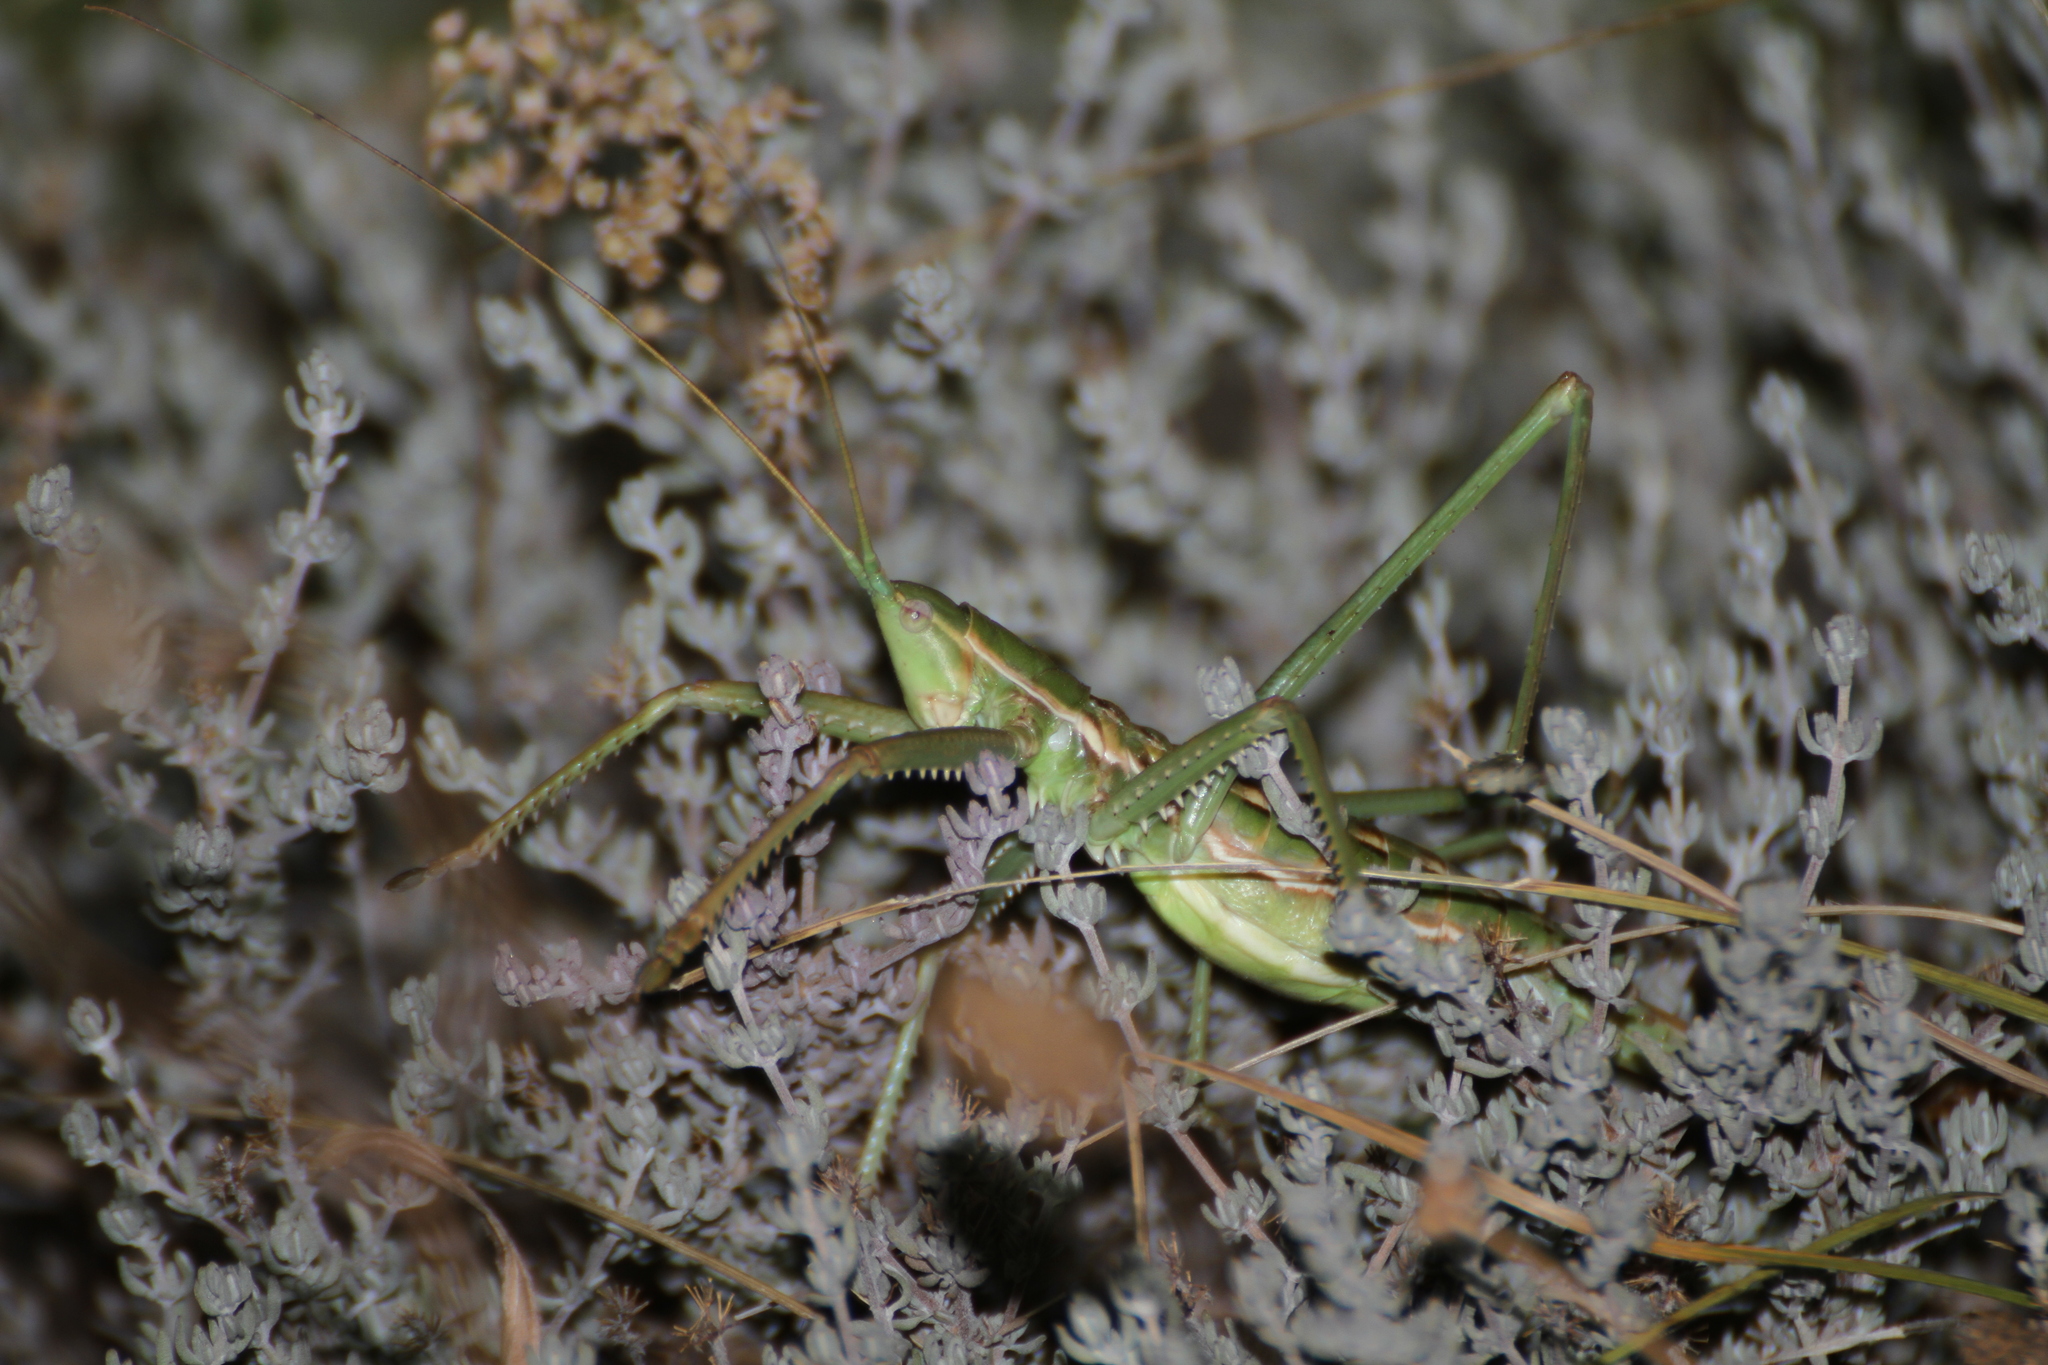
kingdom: Animalia
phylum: Arthropoda
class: Insecta
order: Orthoptera
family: Tettigoniidae
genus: Saga
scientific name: Saga pedo
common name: Common predatory bush-cricket
